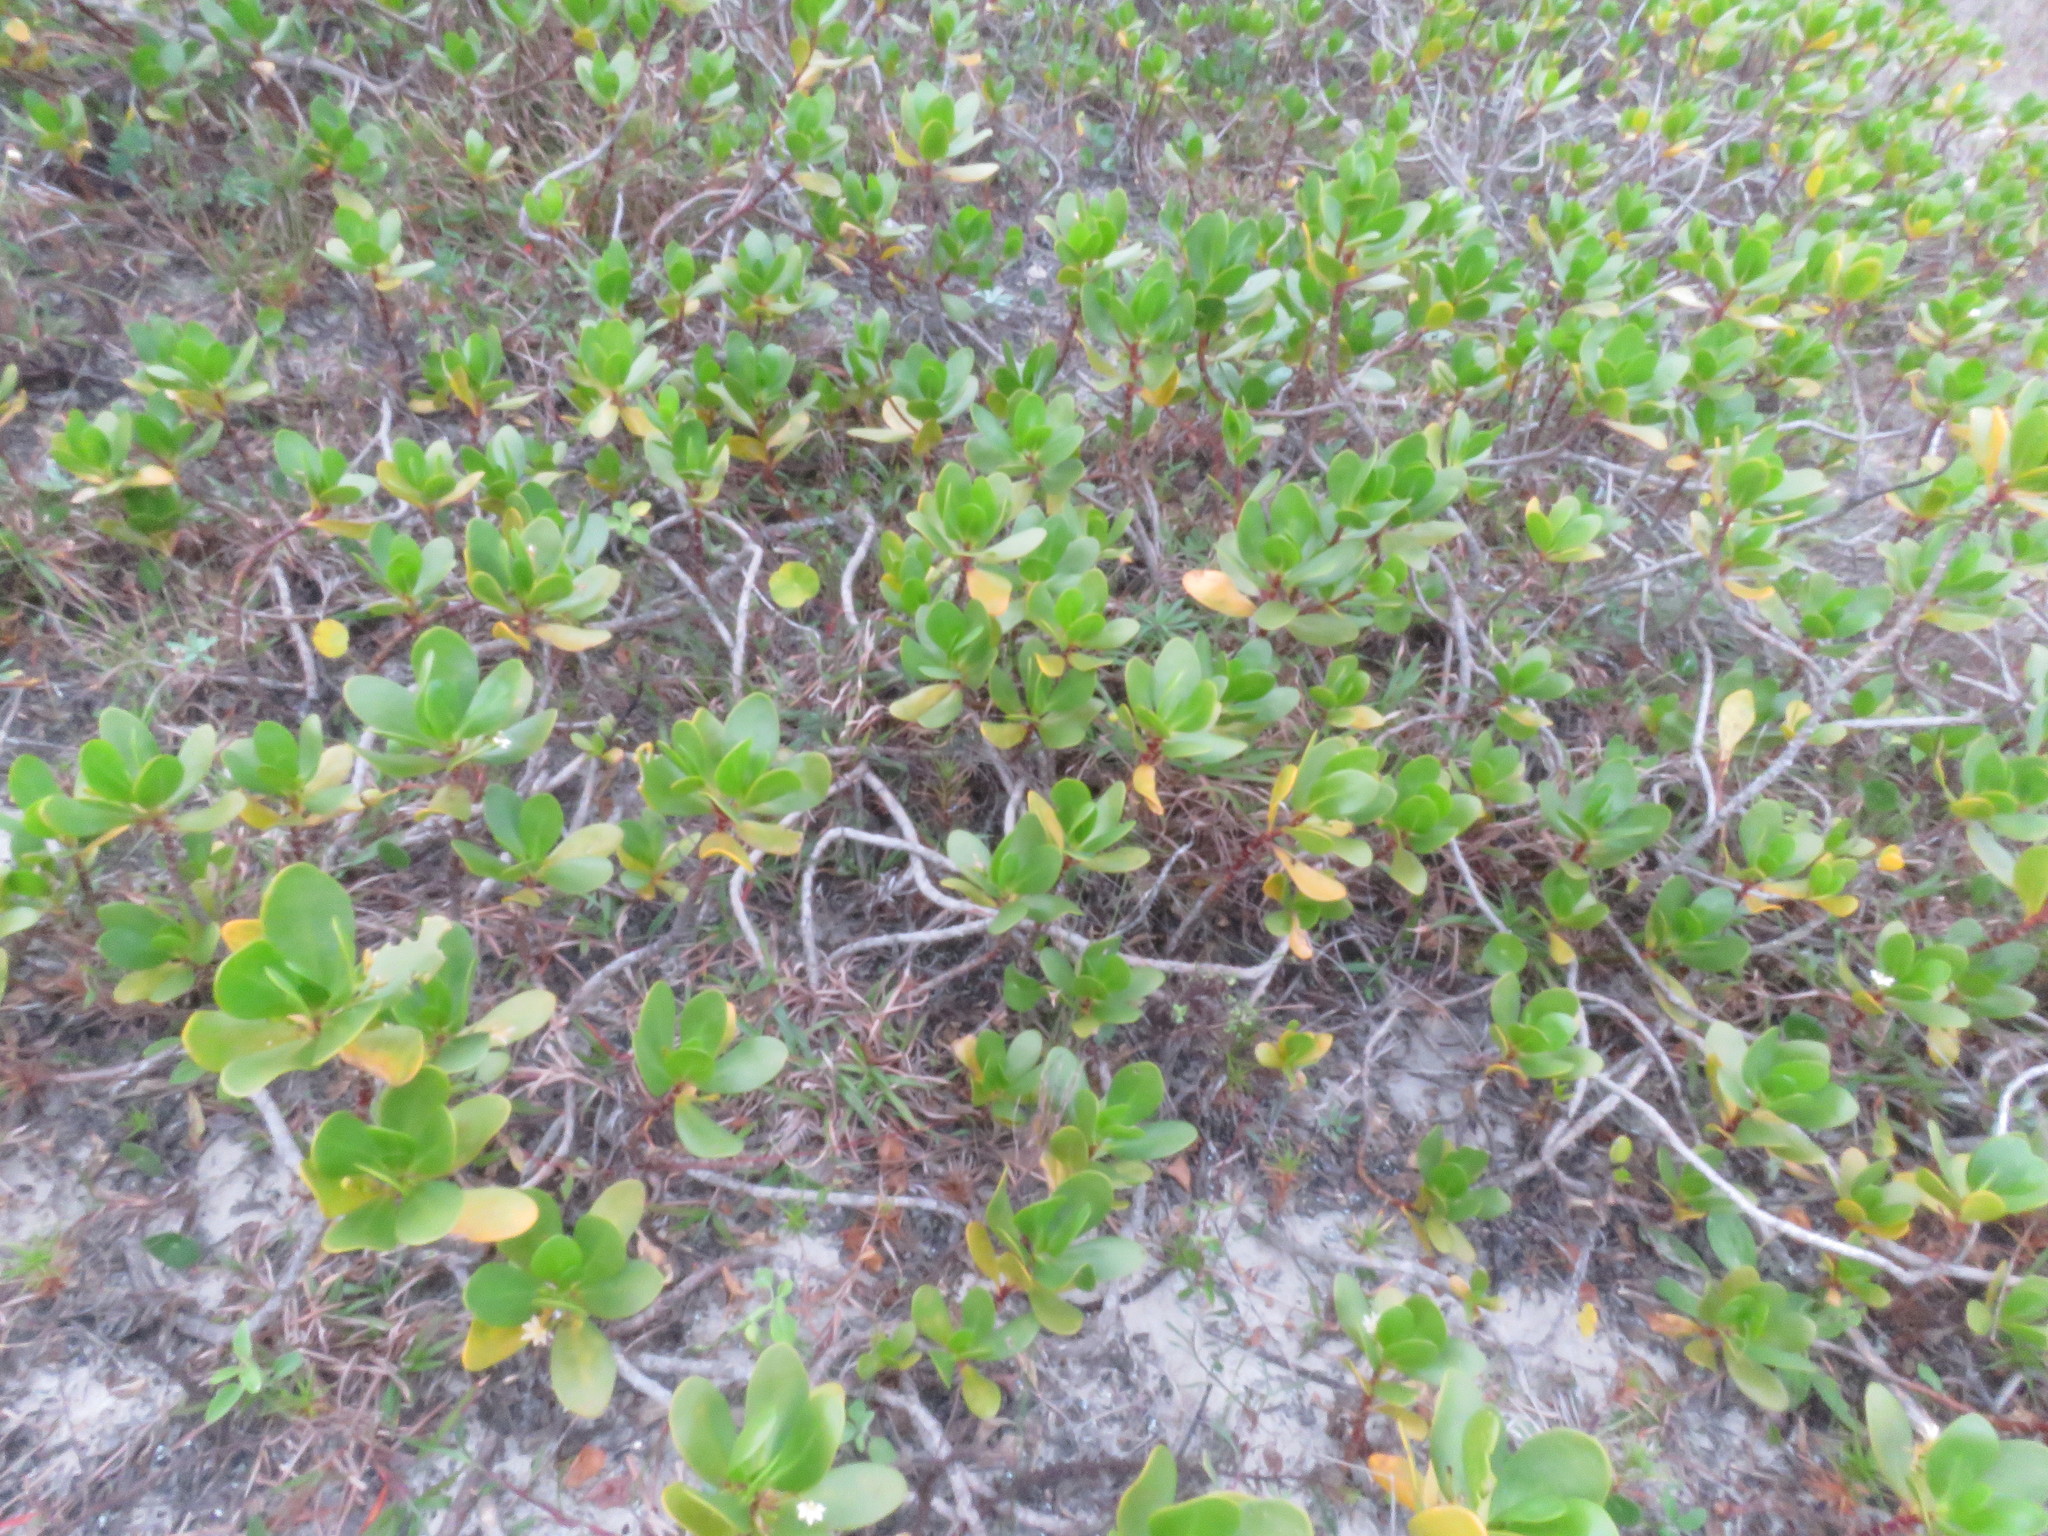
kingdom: Plantae
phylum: Tracheophyta
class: Magnoliopsida
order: Asterales
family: Goodeniaceae
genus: Scaevola
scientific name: Scaevola plumieri
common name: Gull feed
